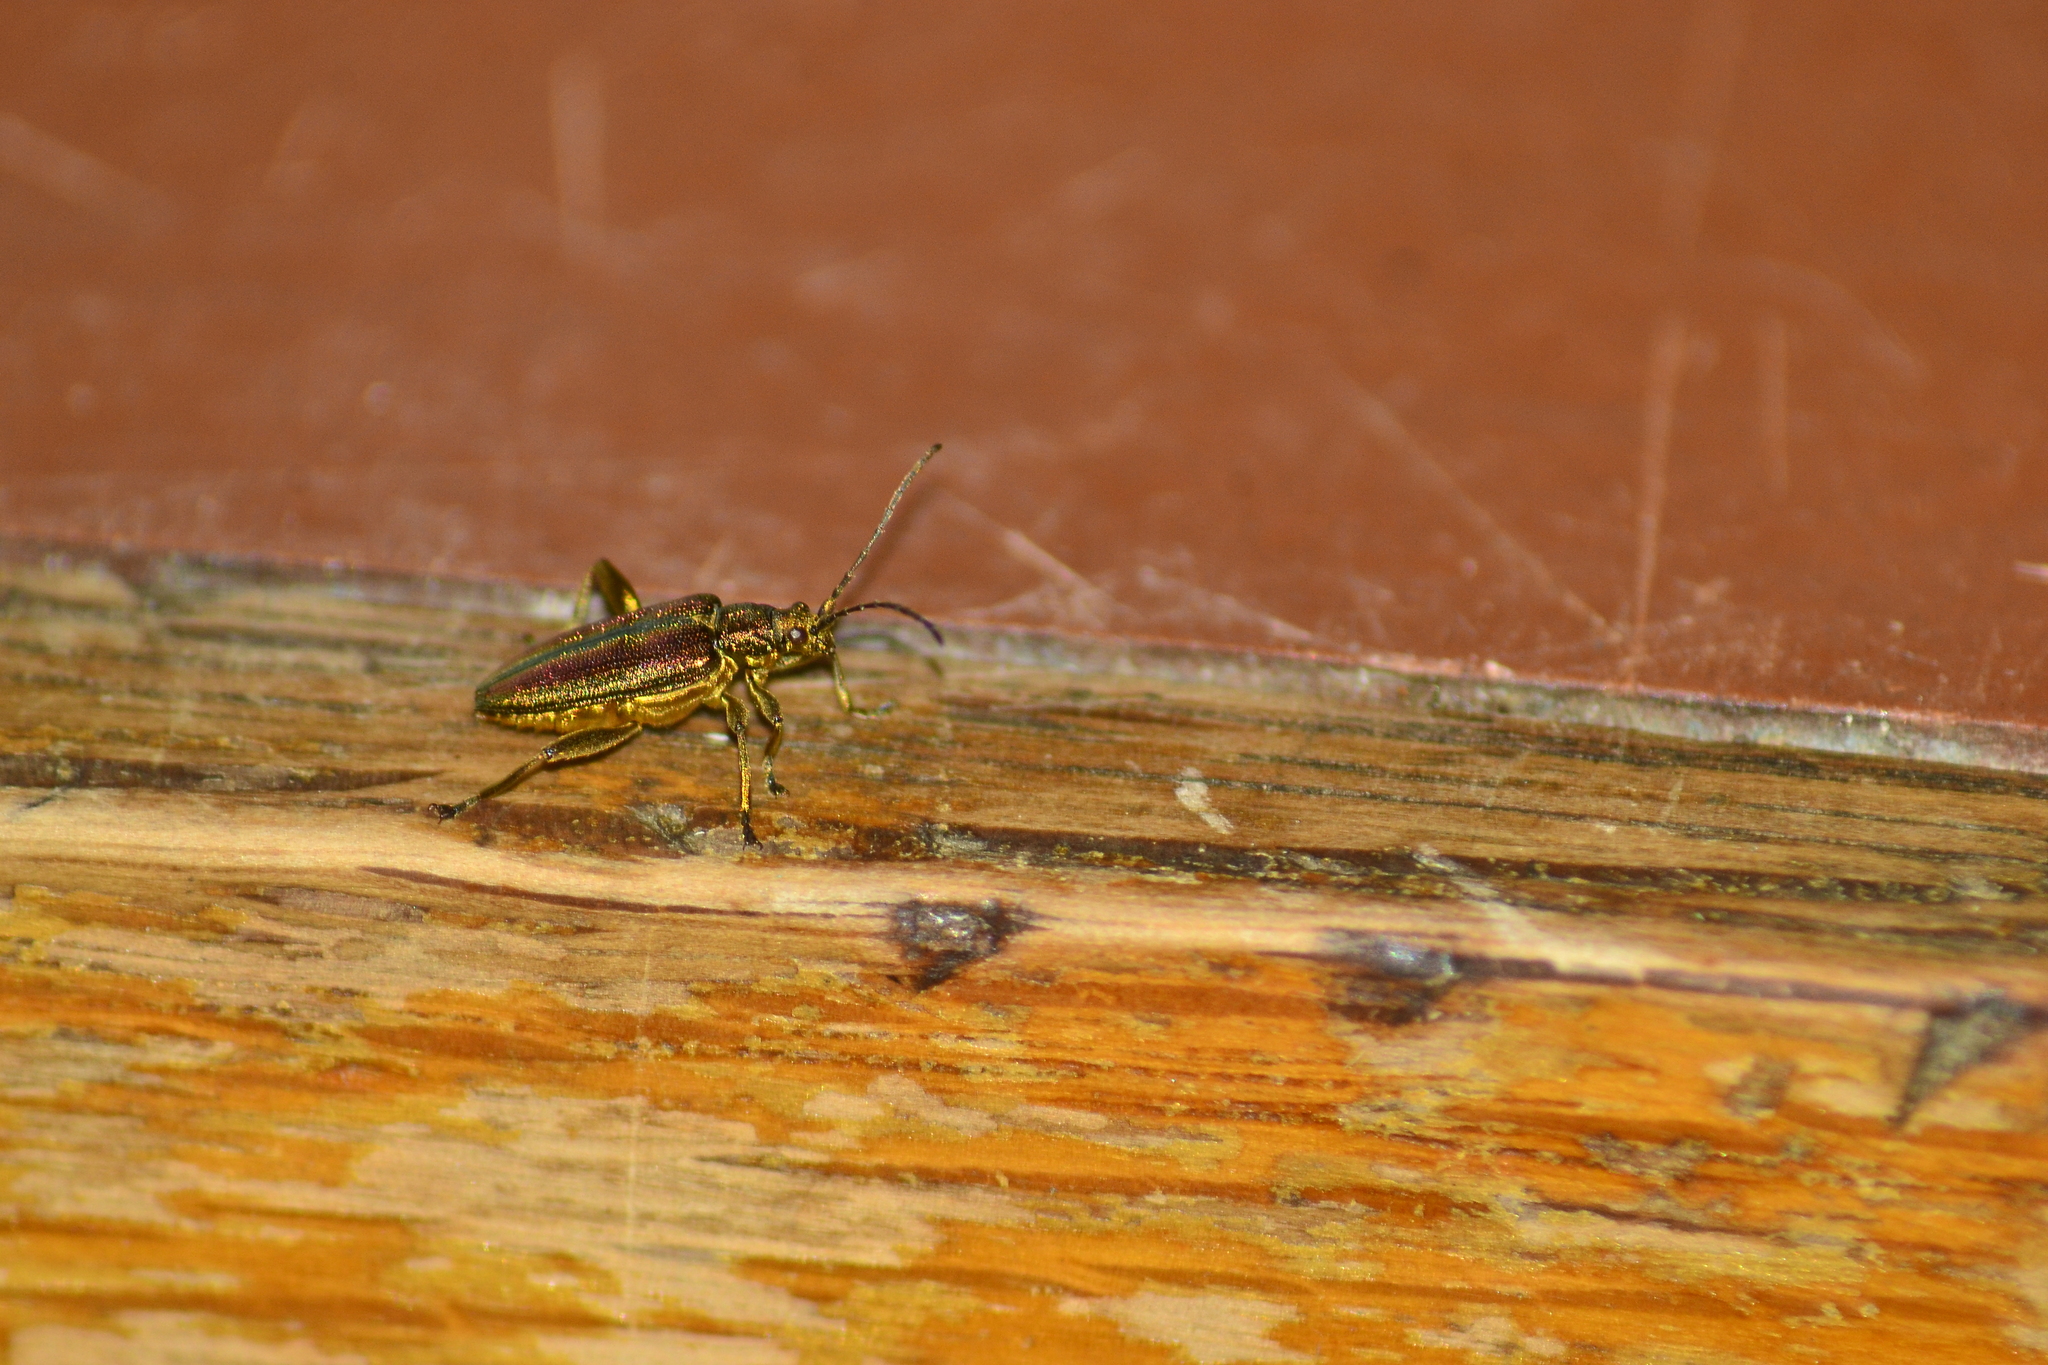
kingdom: Animalia
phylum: Arthropoda
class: Insecta
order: Coleoptera
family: Chrysomelidae
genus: Donacia
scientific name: Donacia aquatica
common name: Zircon reed beetle
